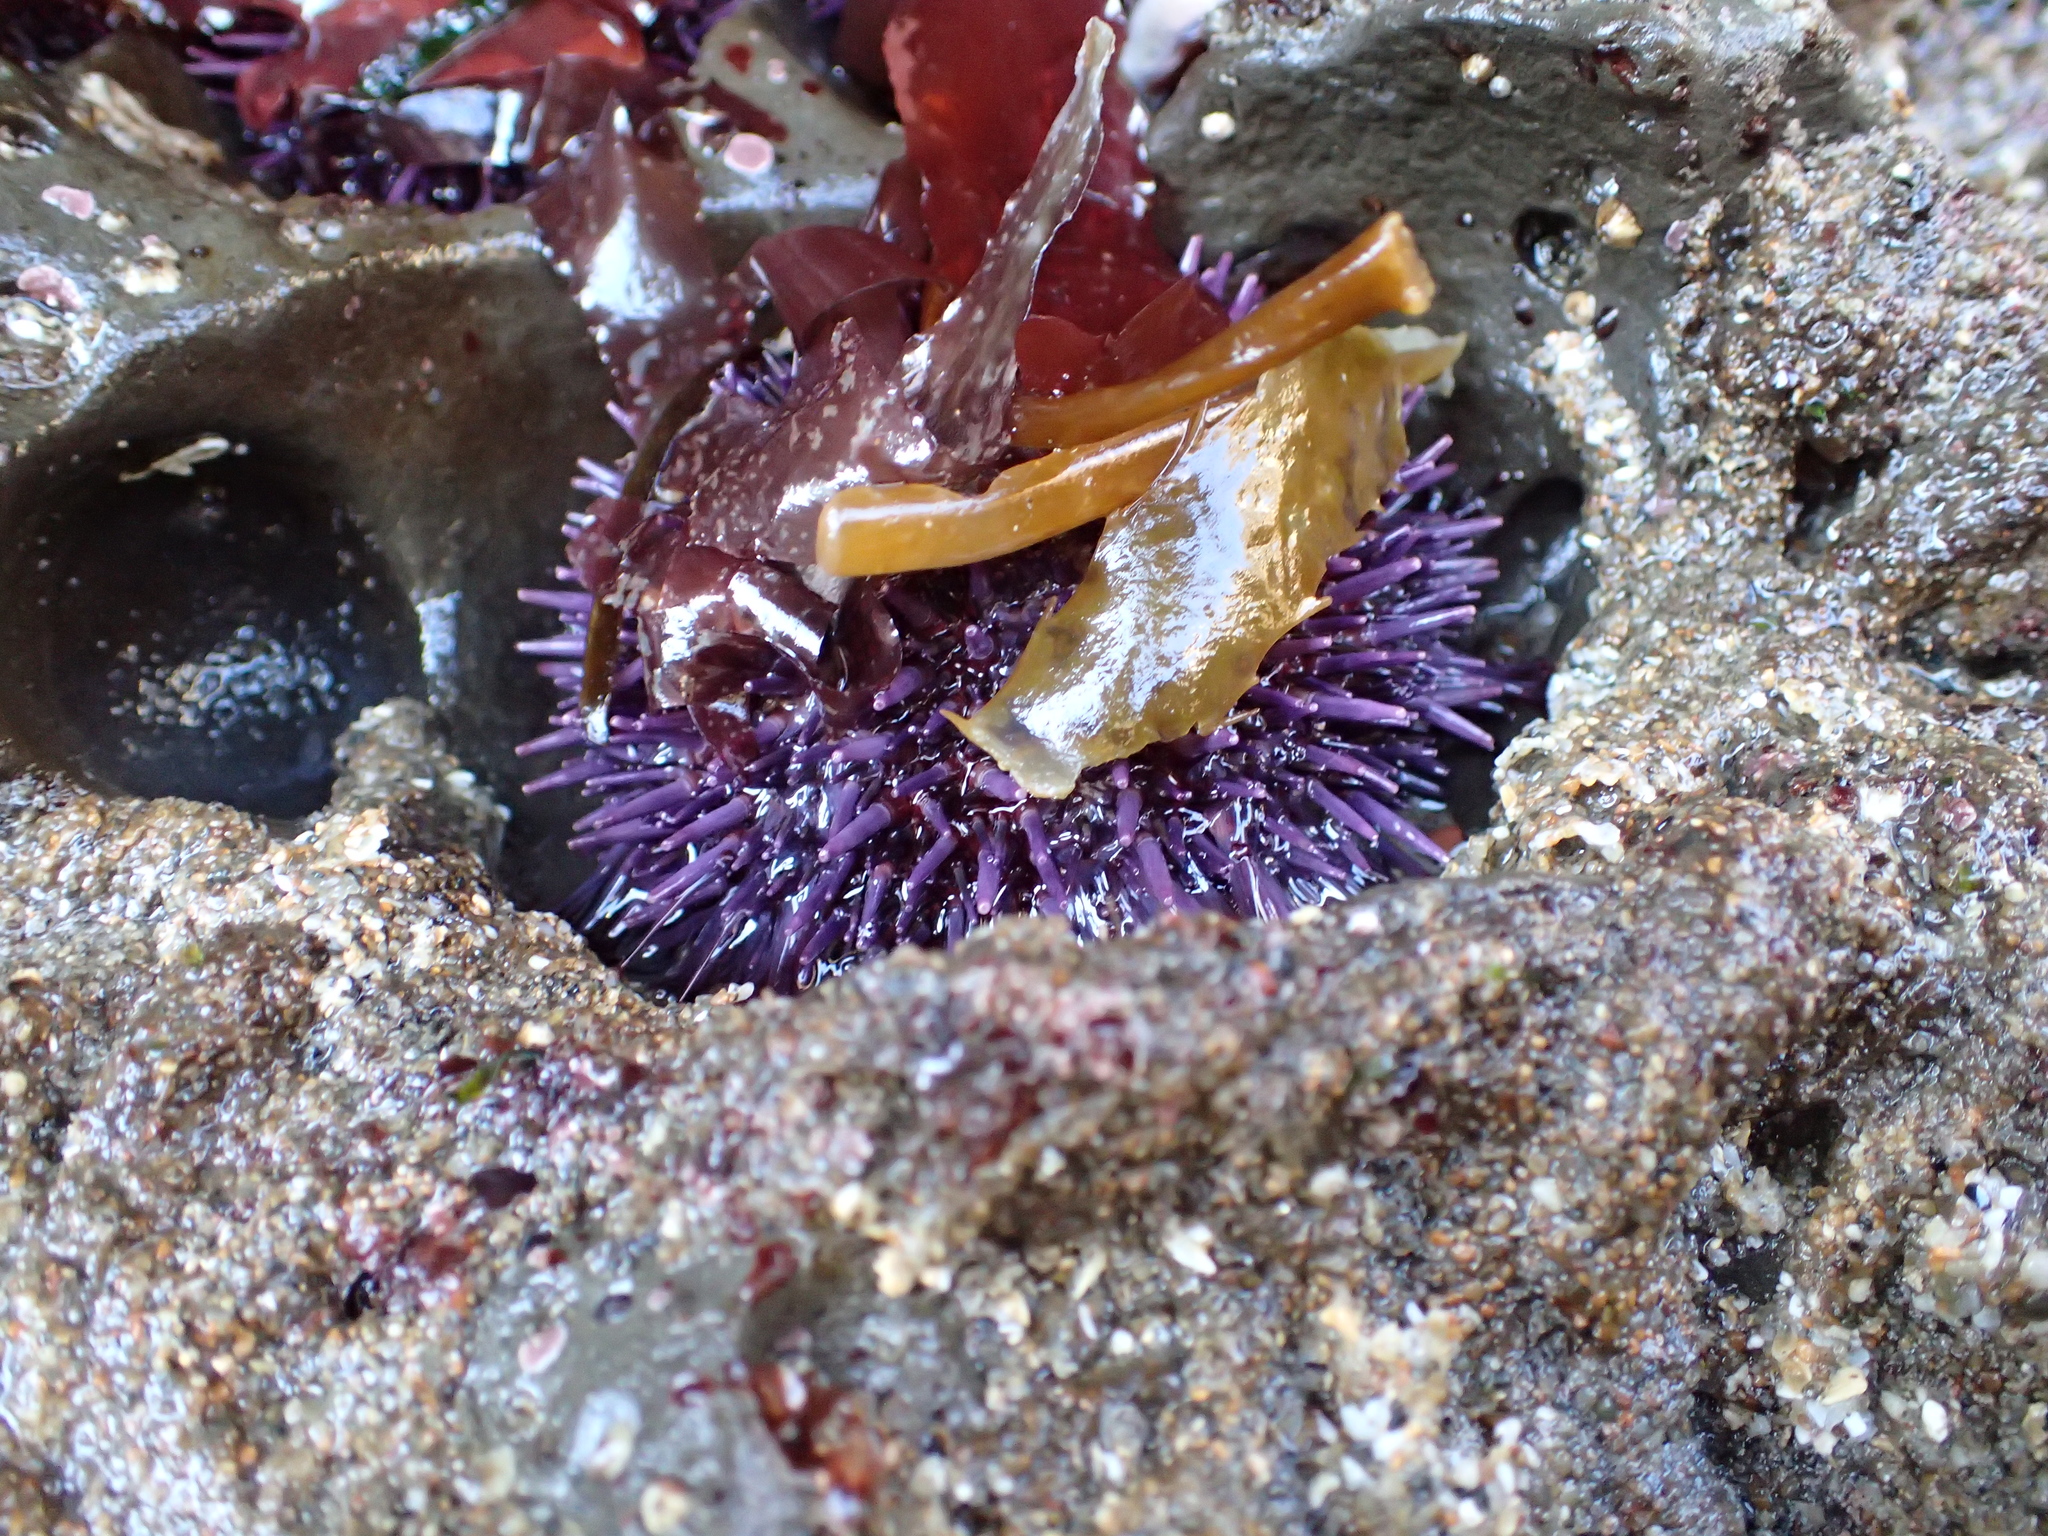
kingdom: Animalia
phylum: Echinodermata
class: Echinoidea
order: Camarodonta
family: Strongylocentrotidae
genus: Strongylocentrotus
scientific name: Strongylocentrotus purpuratus
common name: Purple sea urchin
